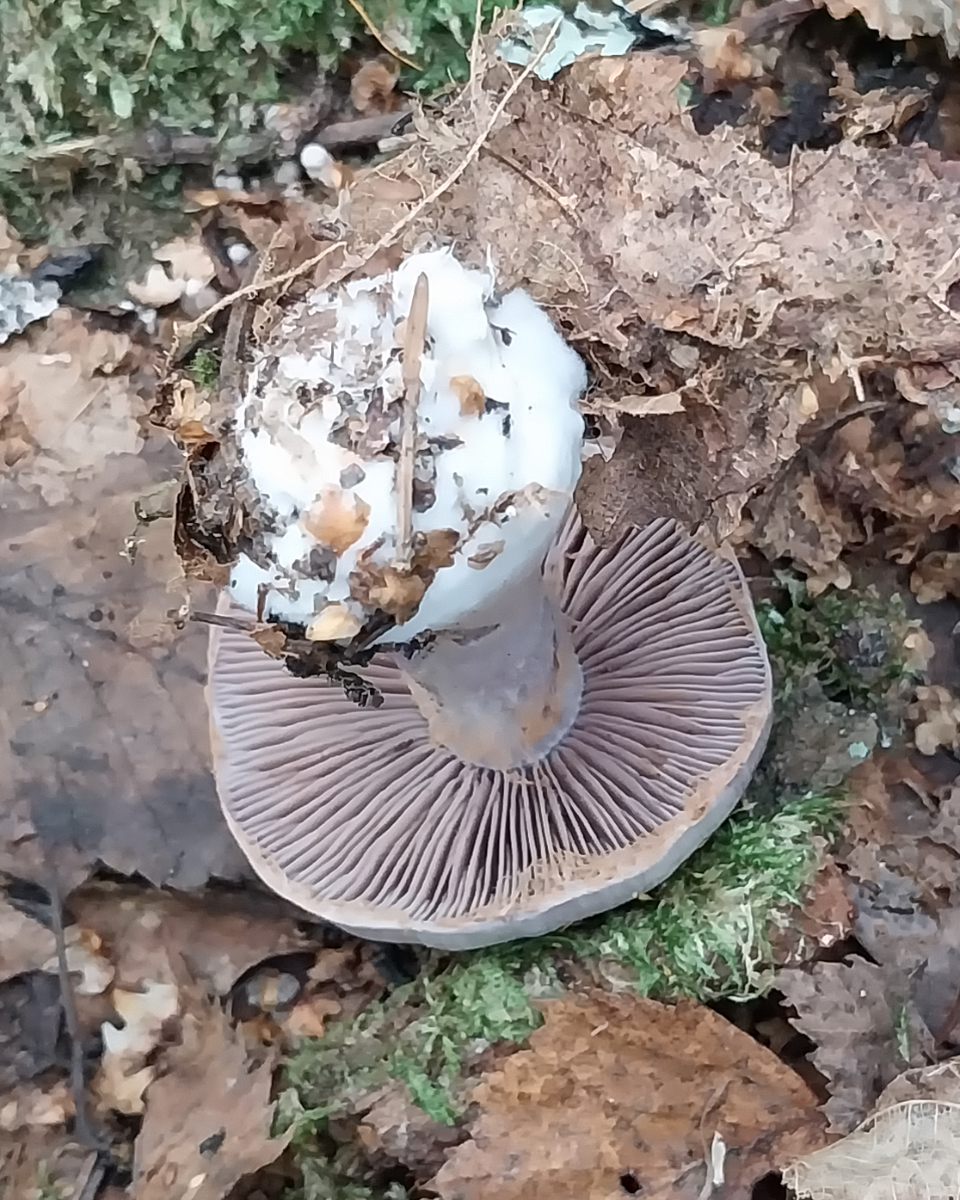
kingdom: Fungi
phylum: Basidiomycota
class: Agaricomycetes
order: Agaricales
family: Cortinariaceae
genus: Cortinarius
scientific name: Cortinarius alboviolaceus
